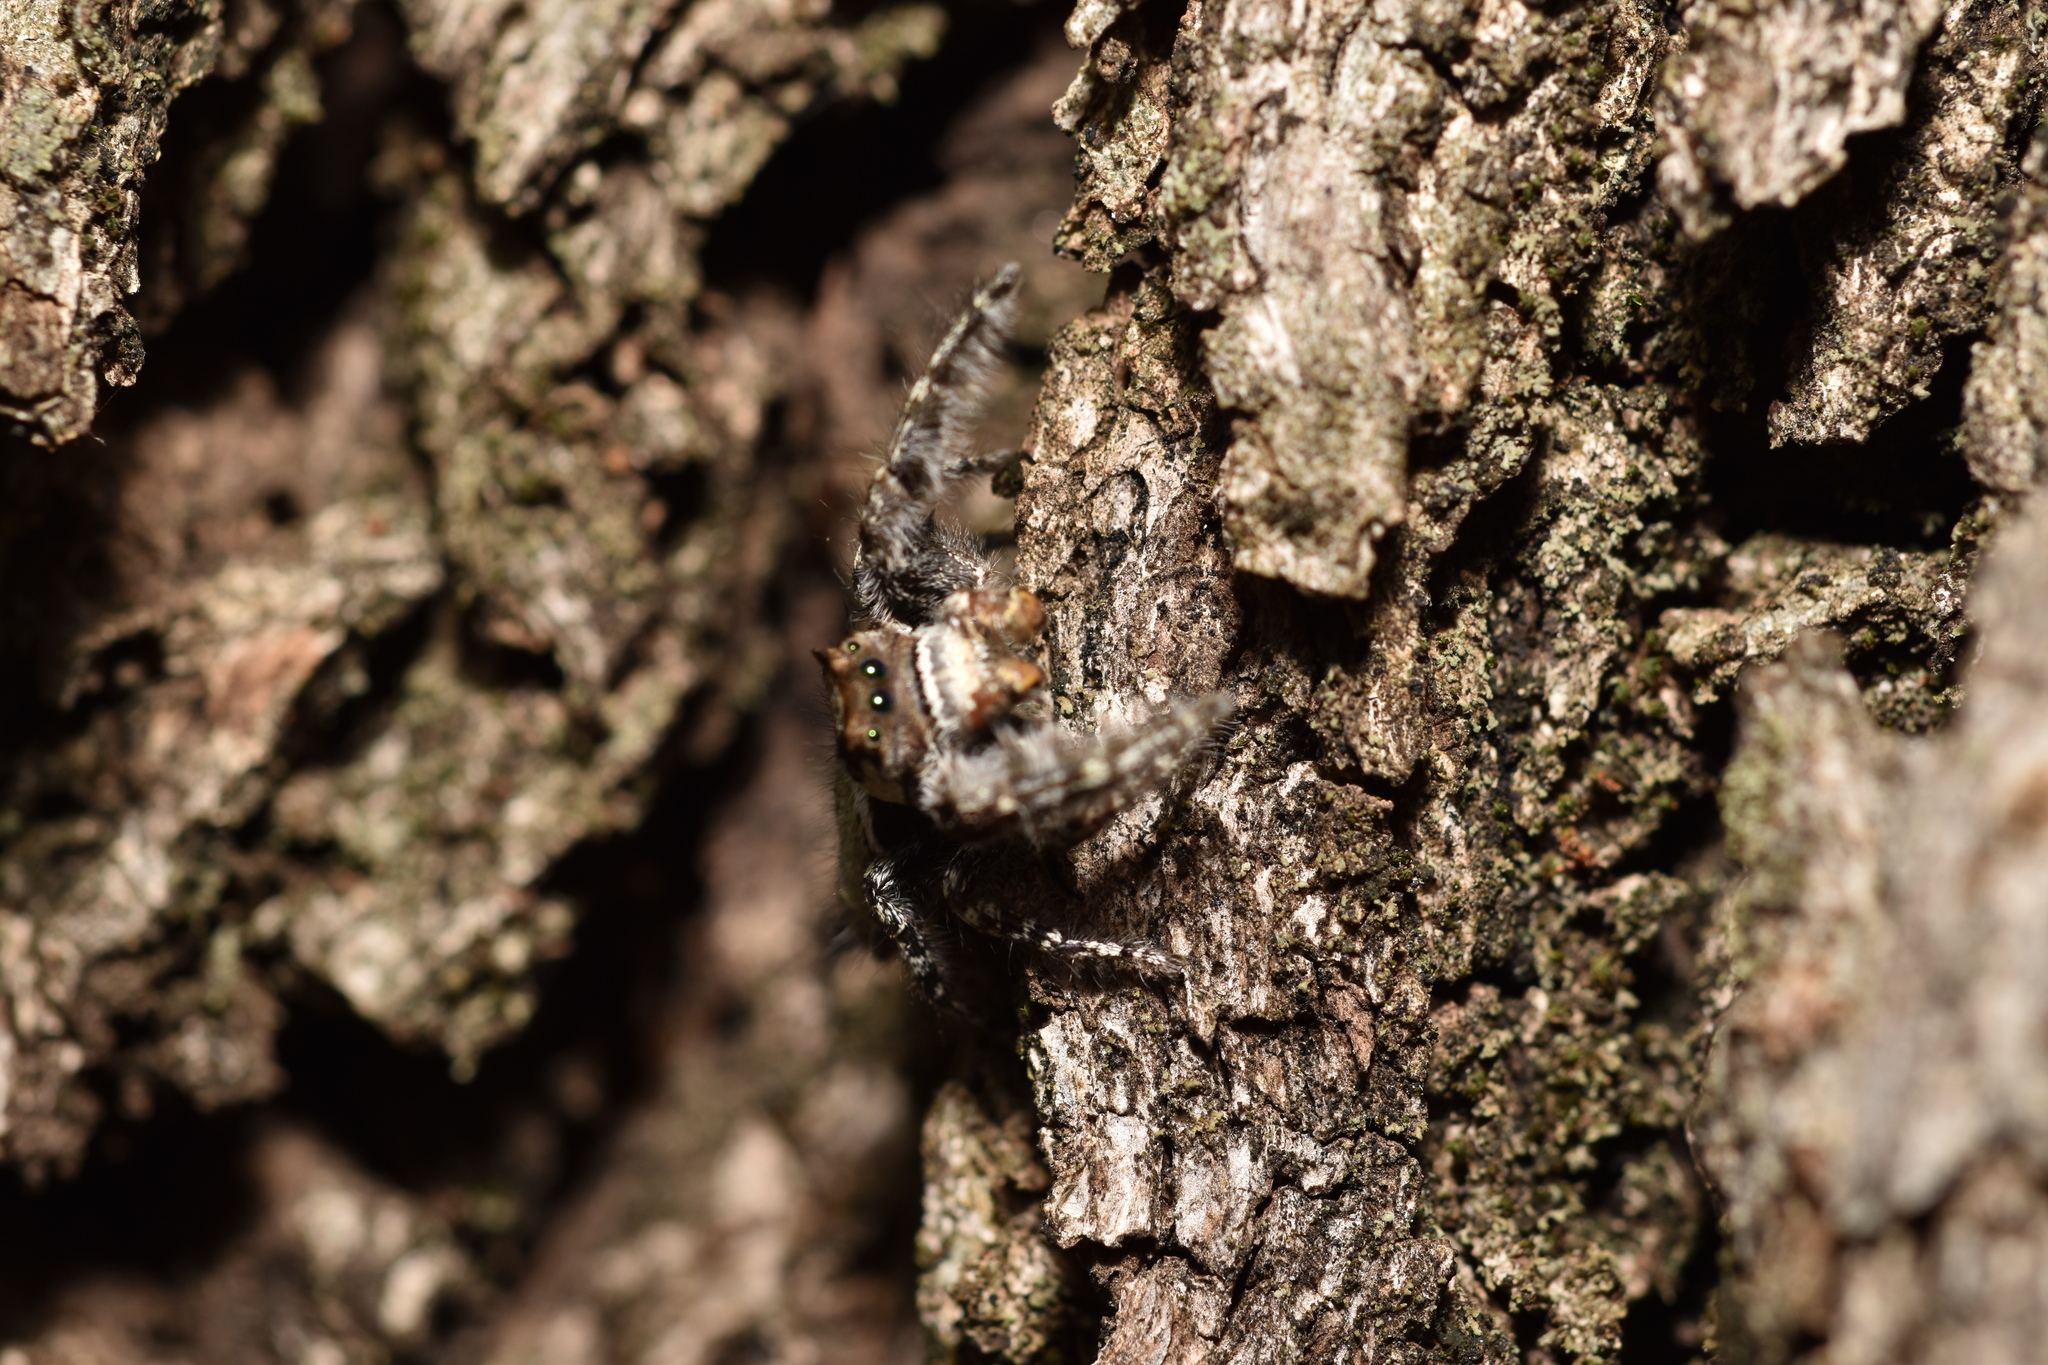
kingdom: Animalia
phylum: Arthropoda
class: Arachnida
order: Araneae
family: Salticidae
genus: Phidippus
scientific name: Phidippus carolinensis
